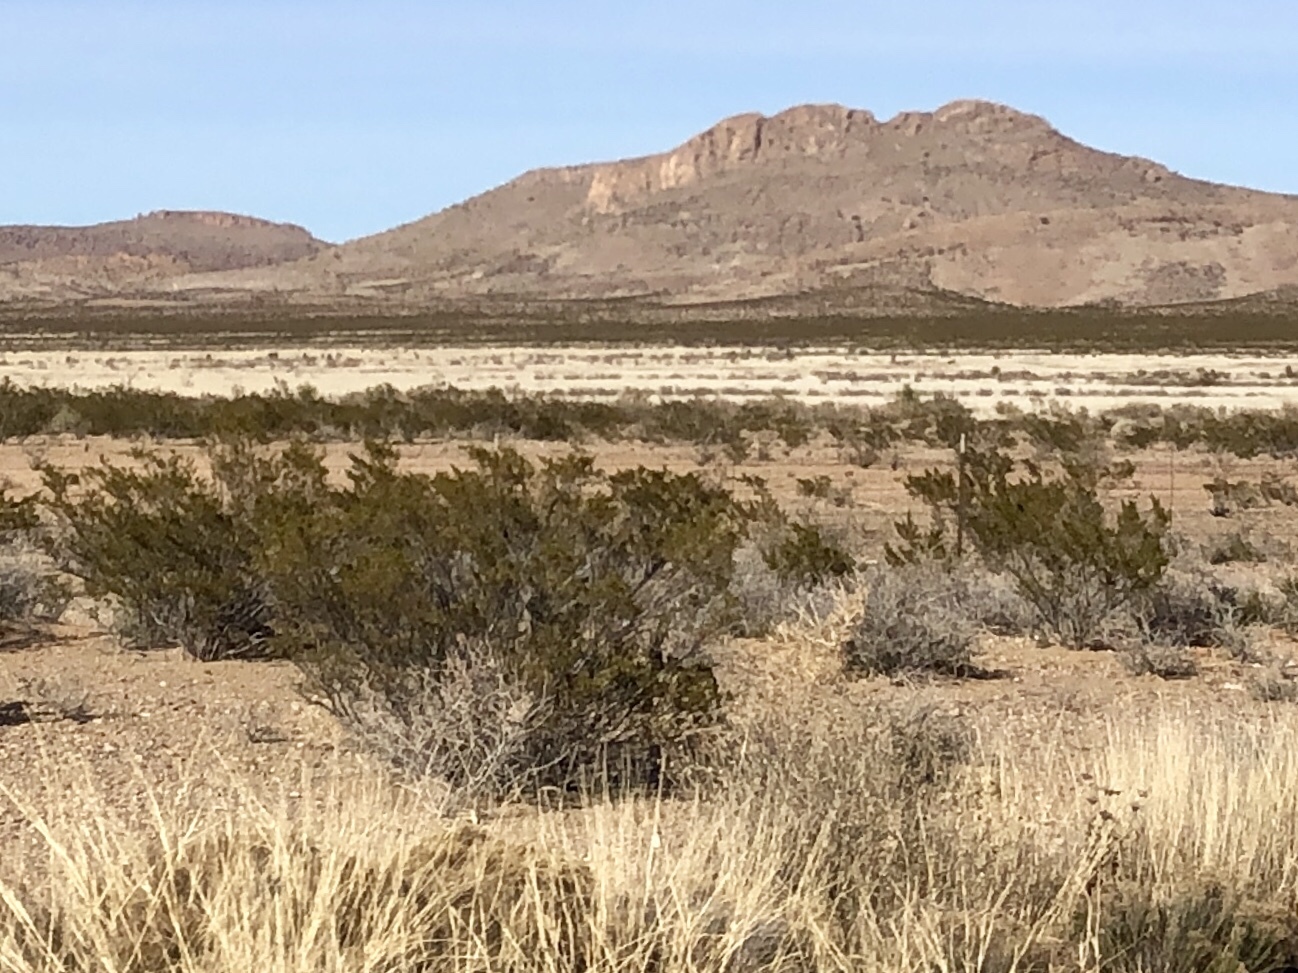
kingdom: Plantae
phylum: Tracheophyta
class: Magnoliopsida
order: Zygophyllales
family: Zygophyllaceae
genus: Larrea
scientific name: Larrea tridentata
